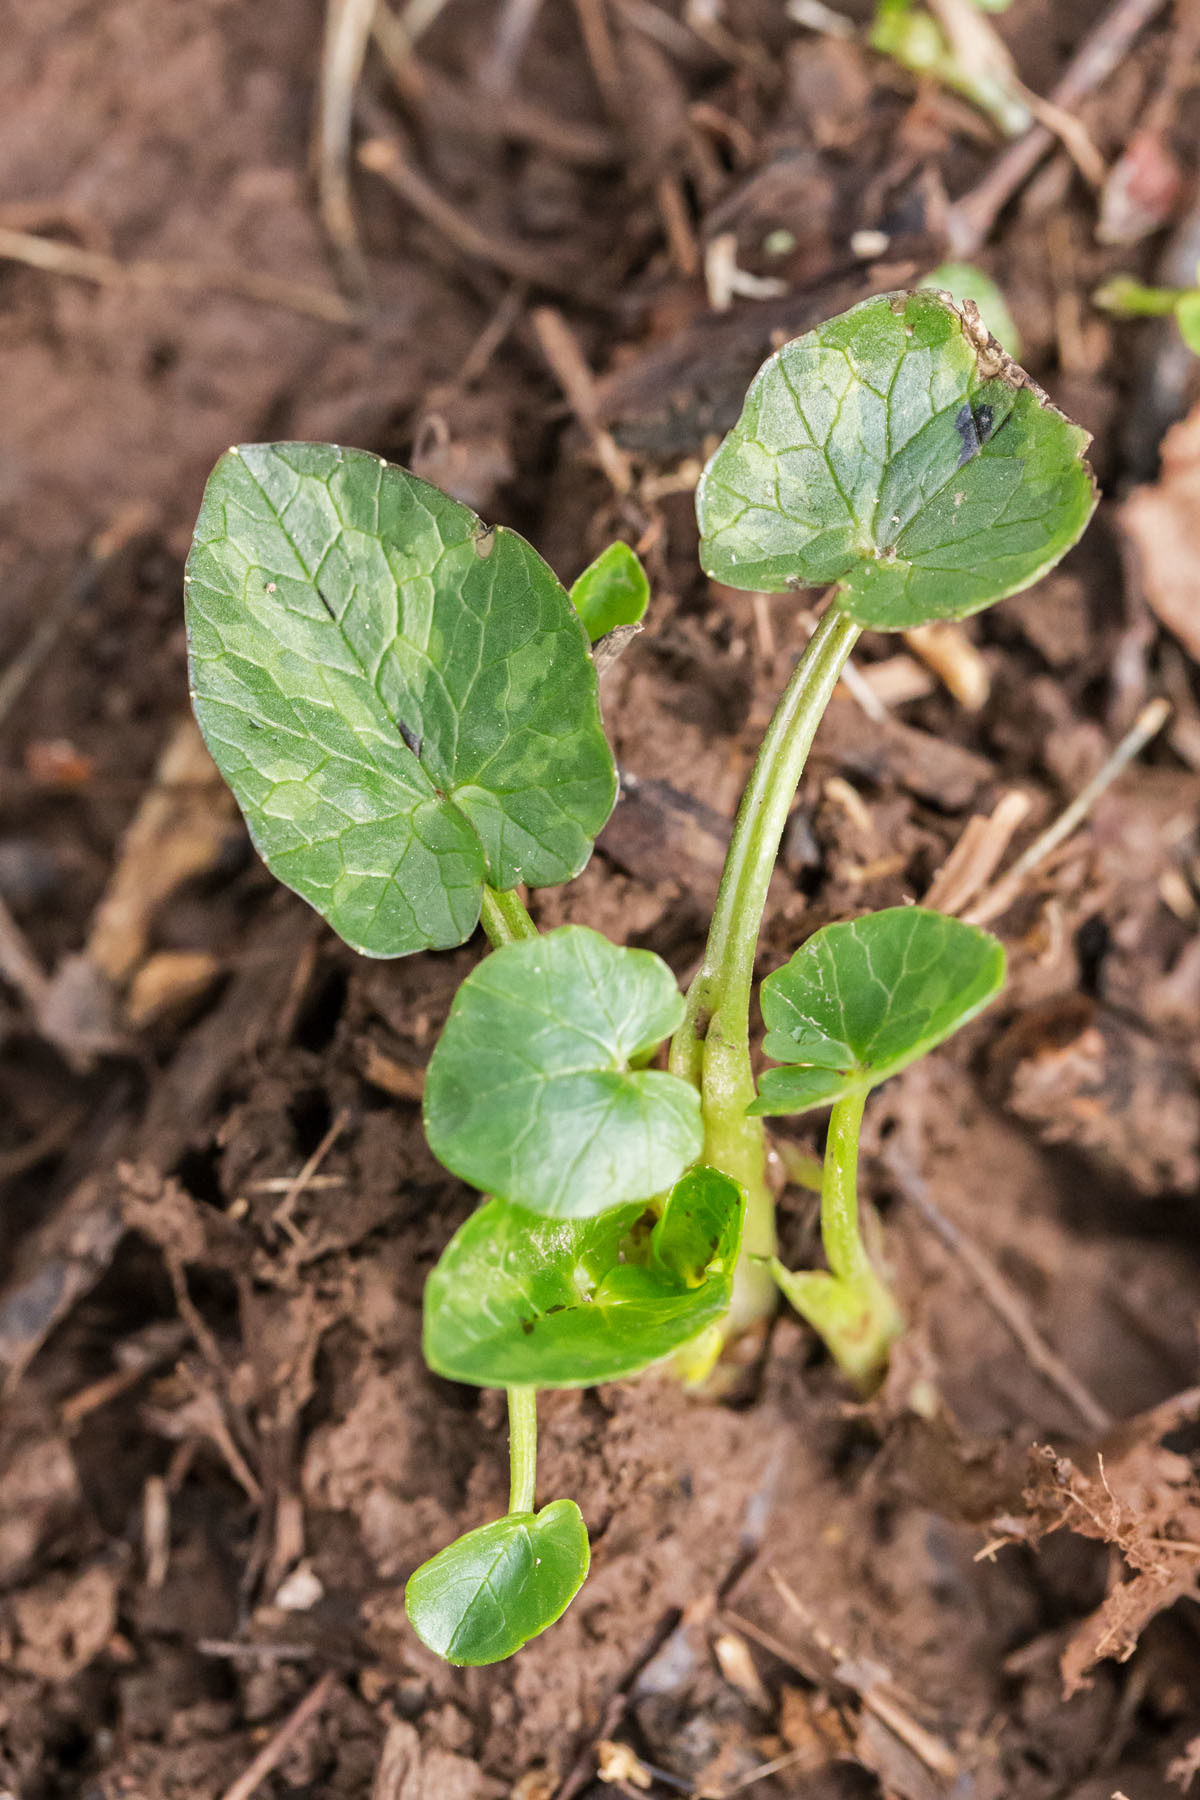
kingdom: Plantae
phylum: Tracheophyta
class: Magnoliopsida
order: Ranunculales
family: Ranunculaceae
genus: Ficaria
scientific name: Ficaria verna
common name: Lesser celandine
